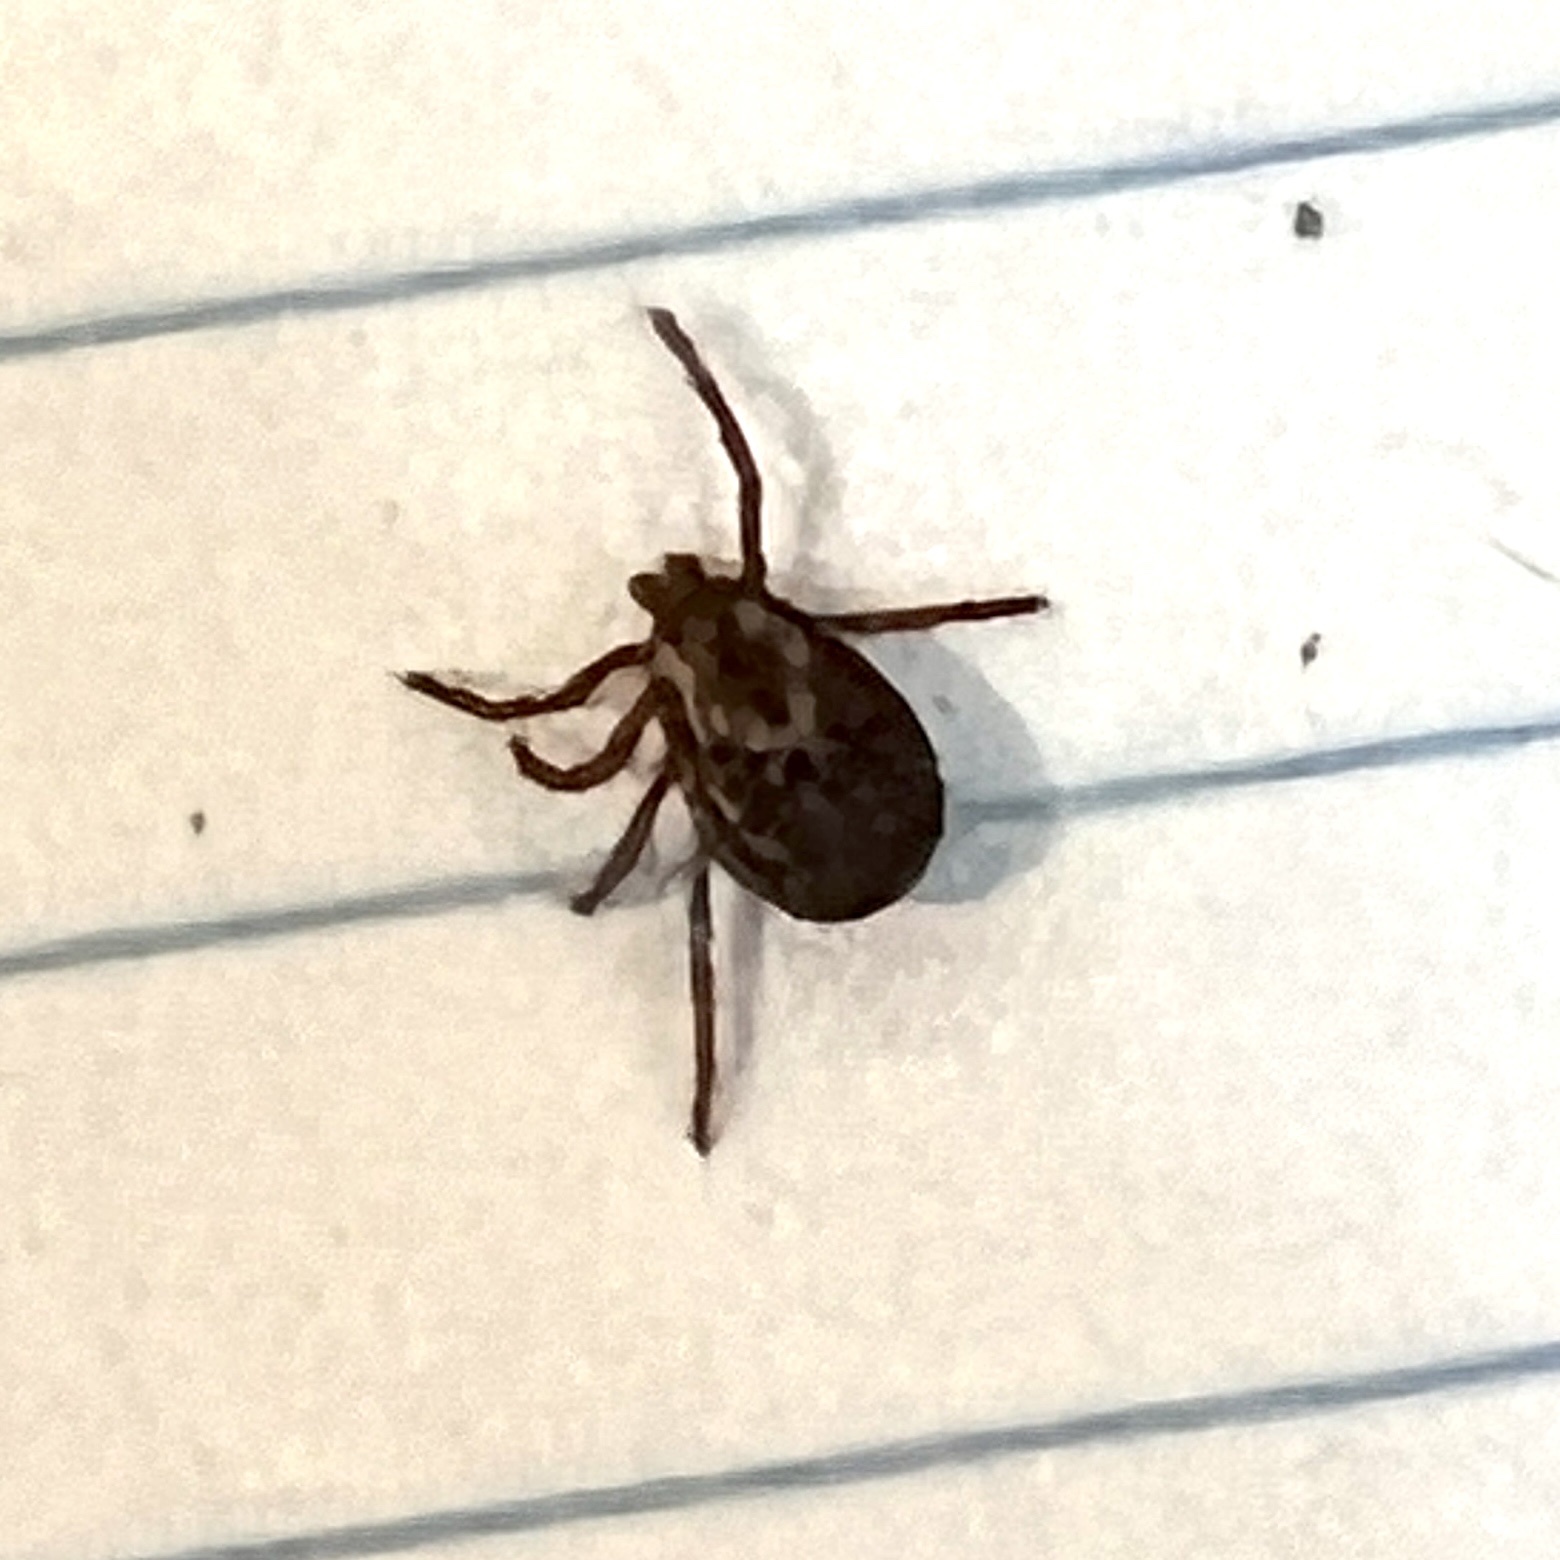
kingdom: Animalia
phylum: Arthropoda
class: Arachnida
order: Ixodida
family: Ixodidae
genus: Dermacentor
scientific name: Dermacentor variabilis
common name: American dog tick
